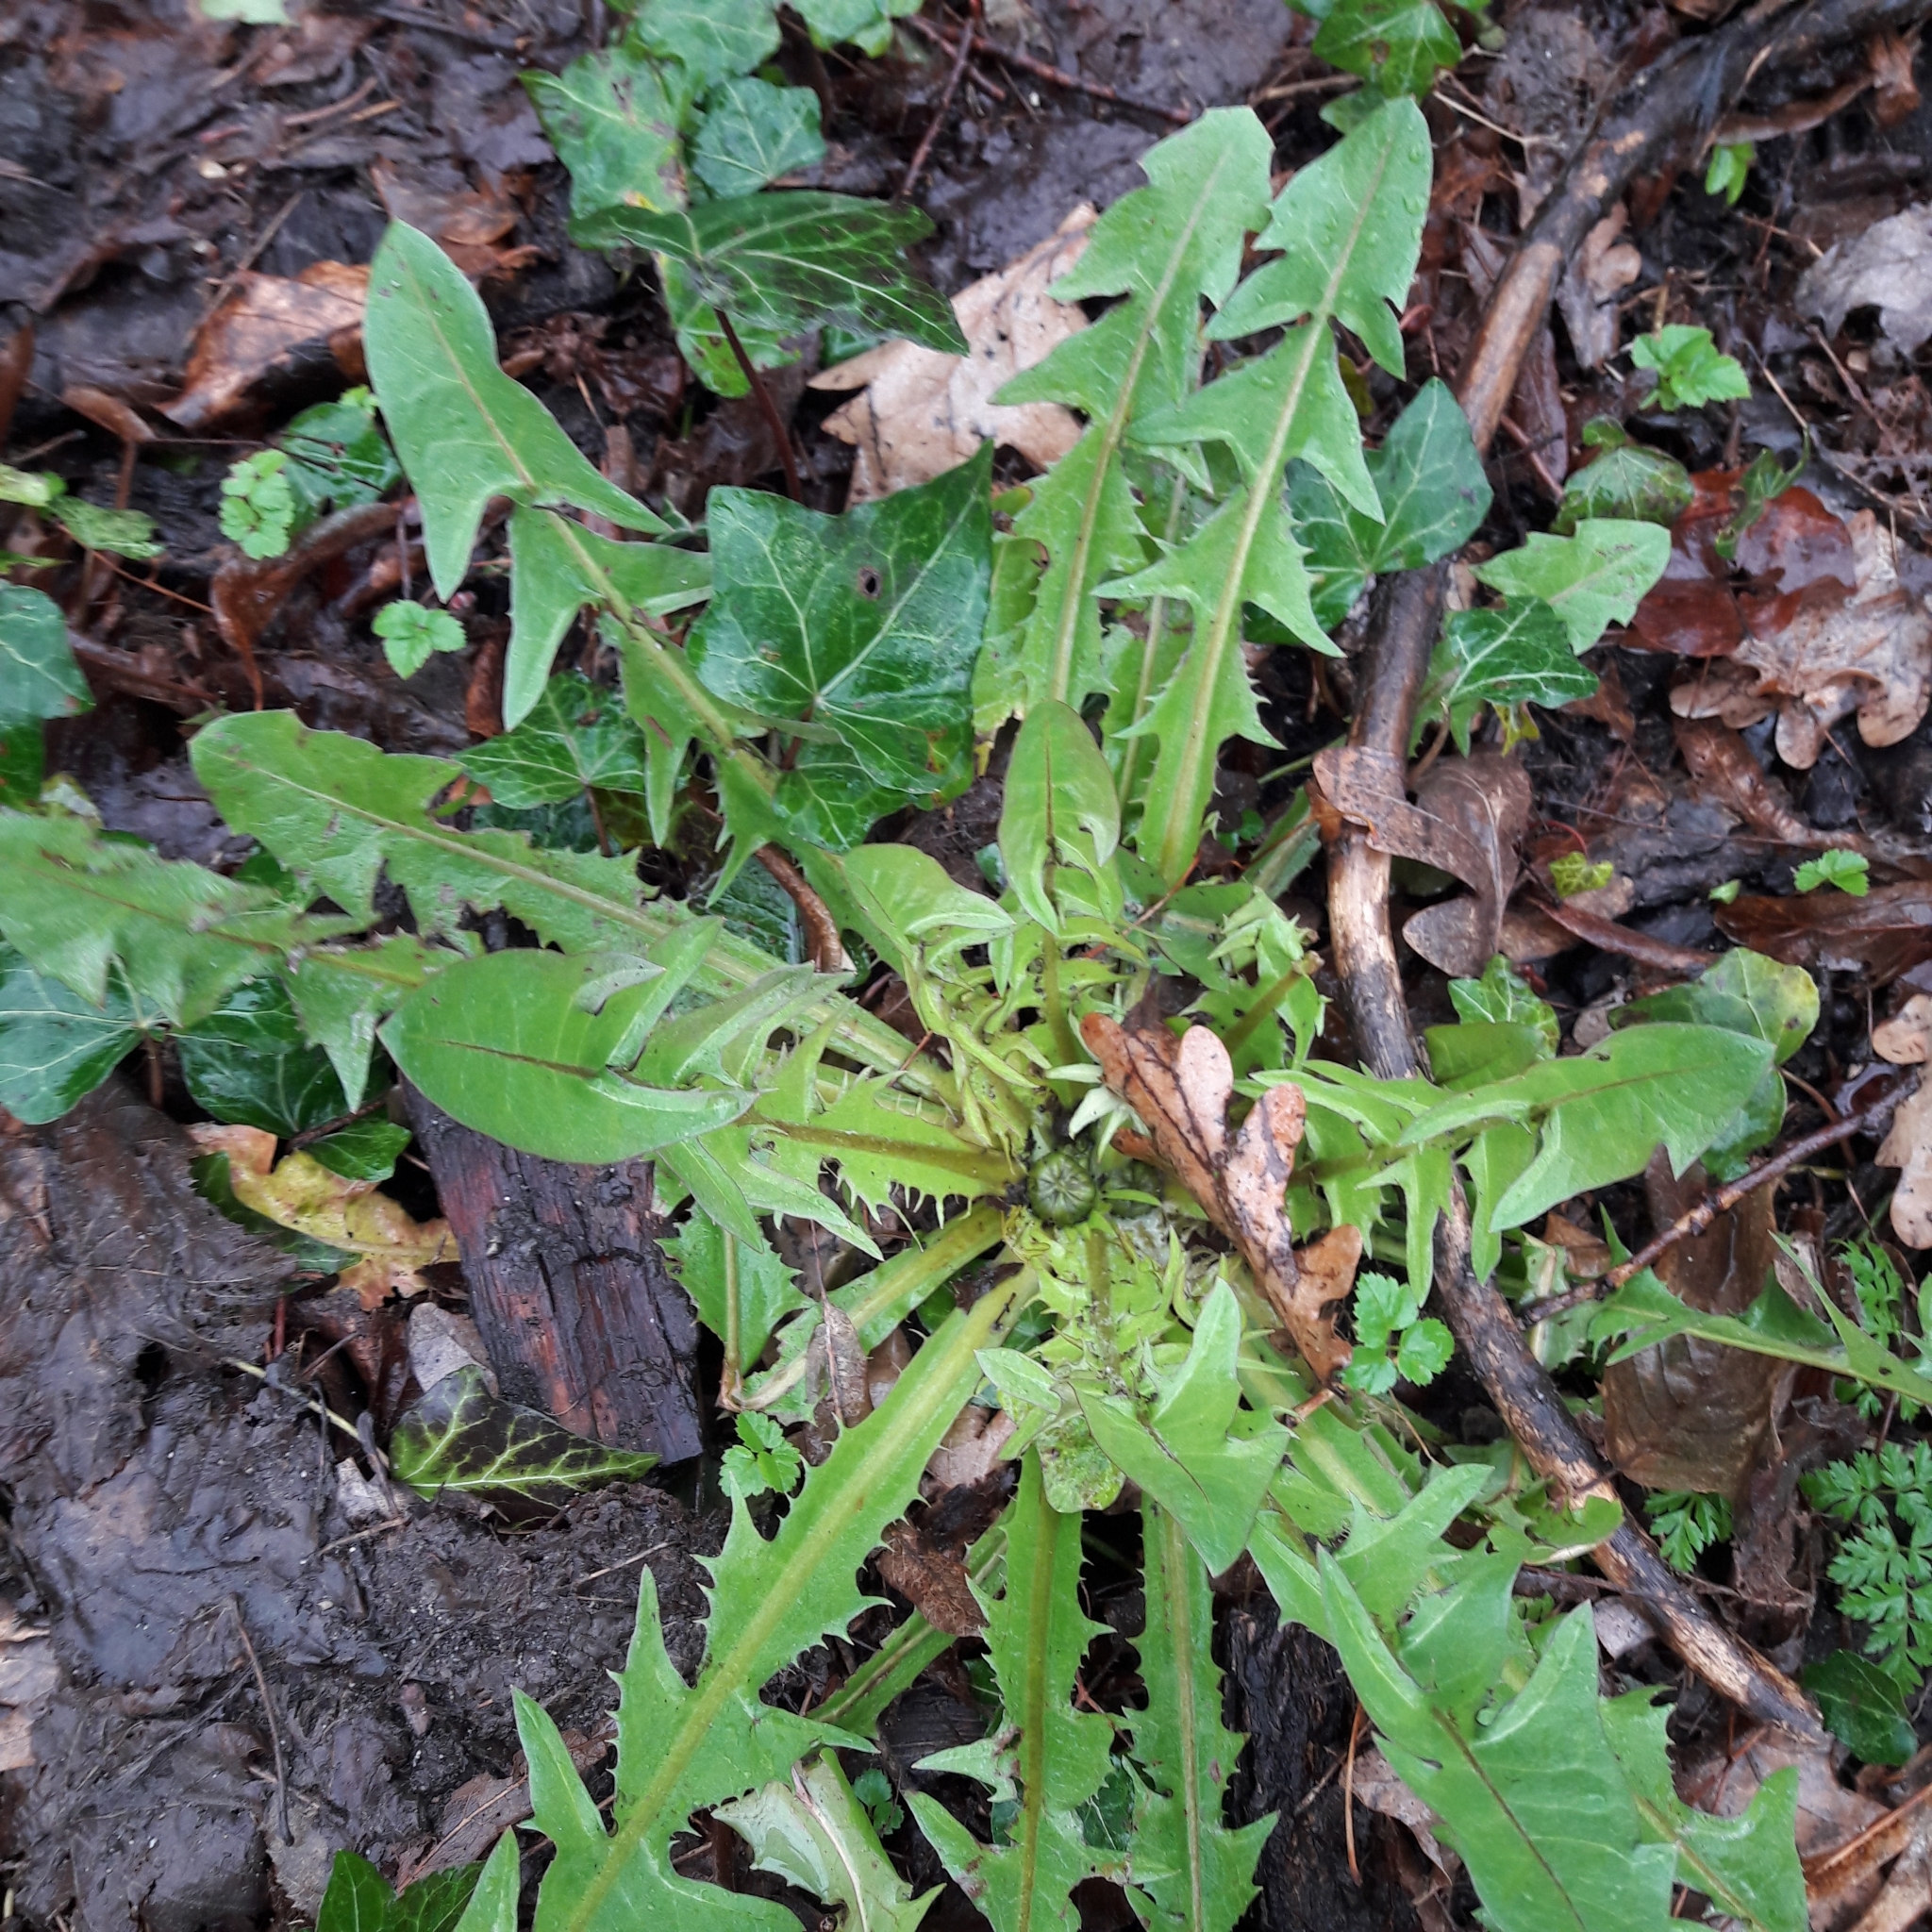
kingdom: Plantae
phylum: Tracheophyta
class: Magnoliopsida
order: Asterales
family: Asteraceae
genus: Taraxacum
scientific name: Taraxacum officinale
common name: Common dandelion
